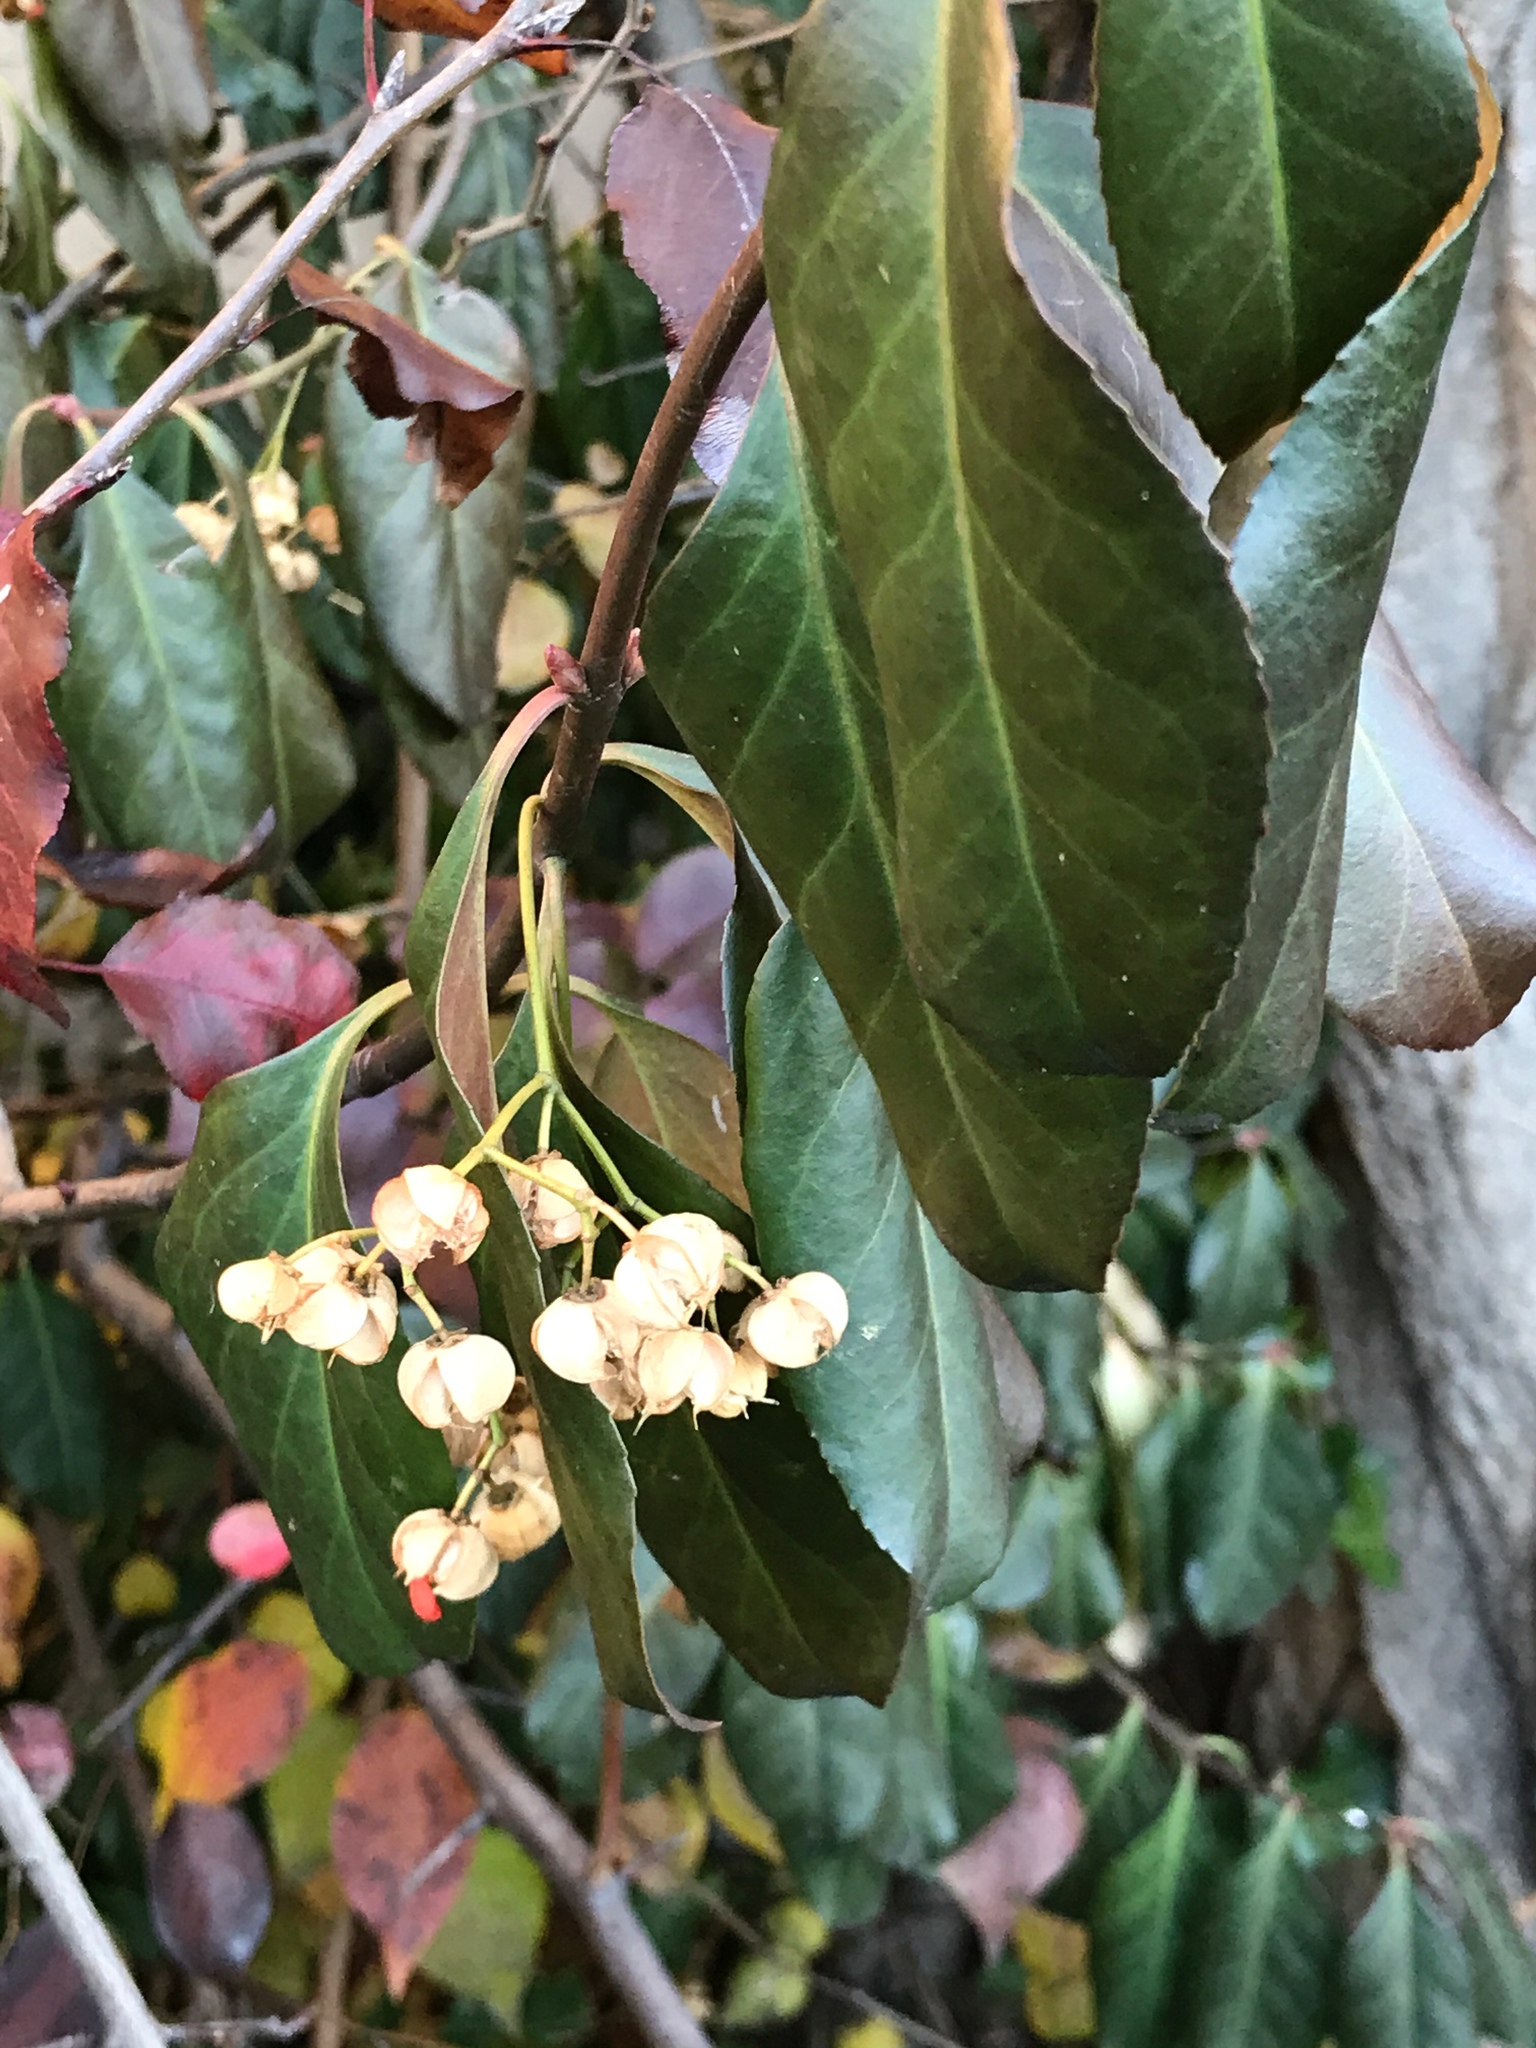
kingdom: Plantae
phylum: Tracheophyta
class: Magnoliopsida
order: Celastrales
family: Celastraceae
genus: Euonymus
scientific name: Euonymus fortunei
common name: Climbing euonymus
